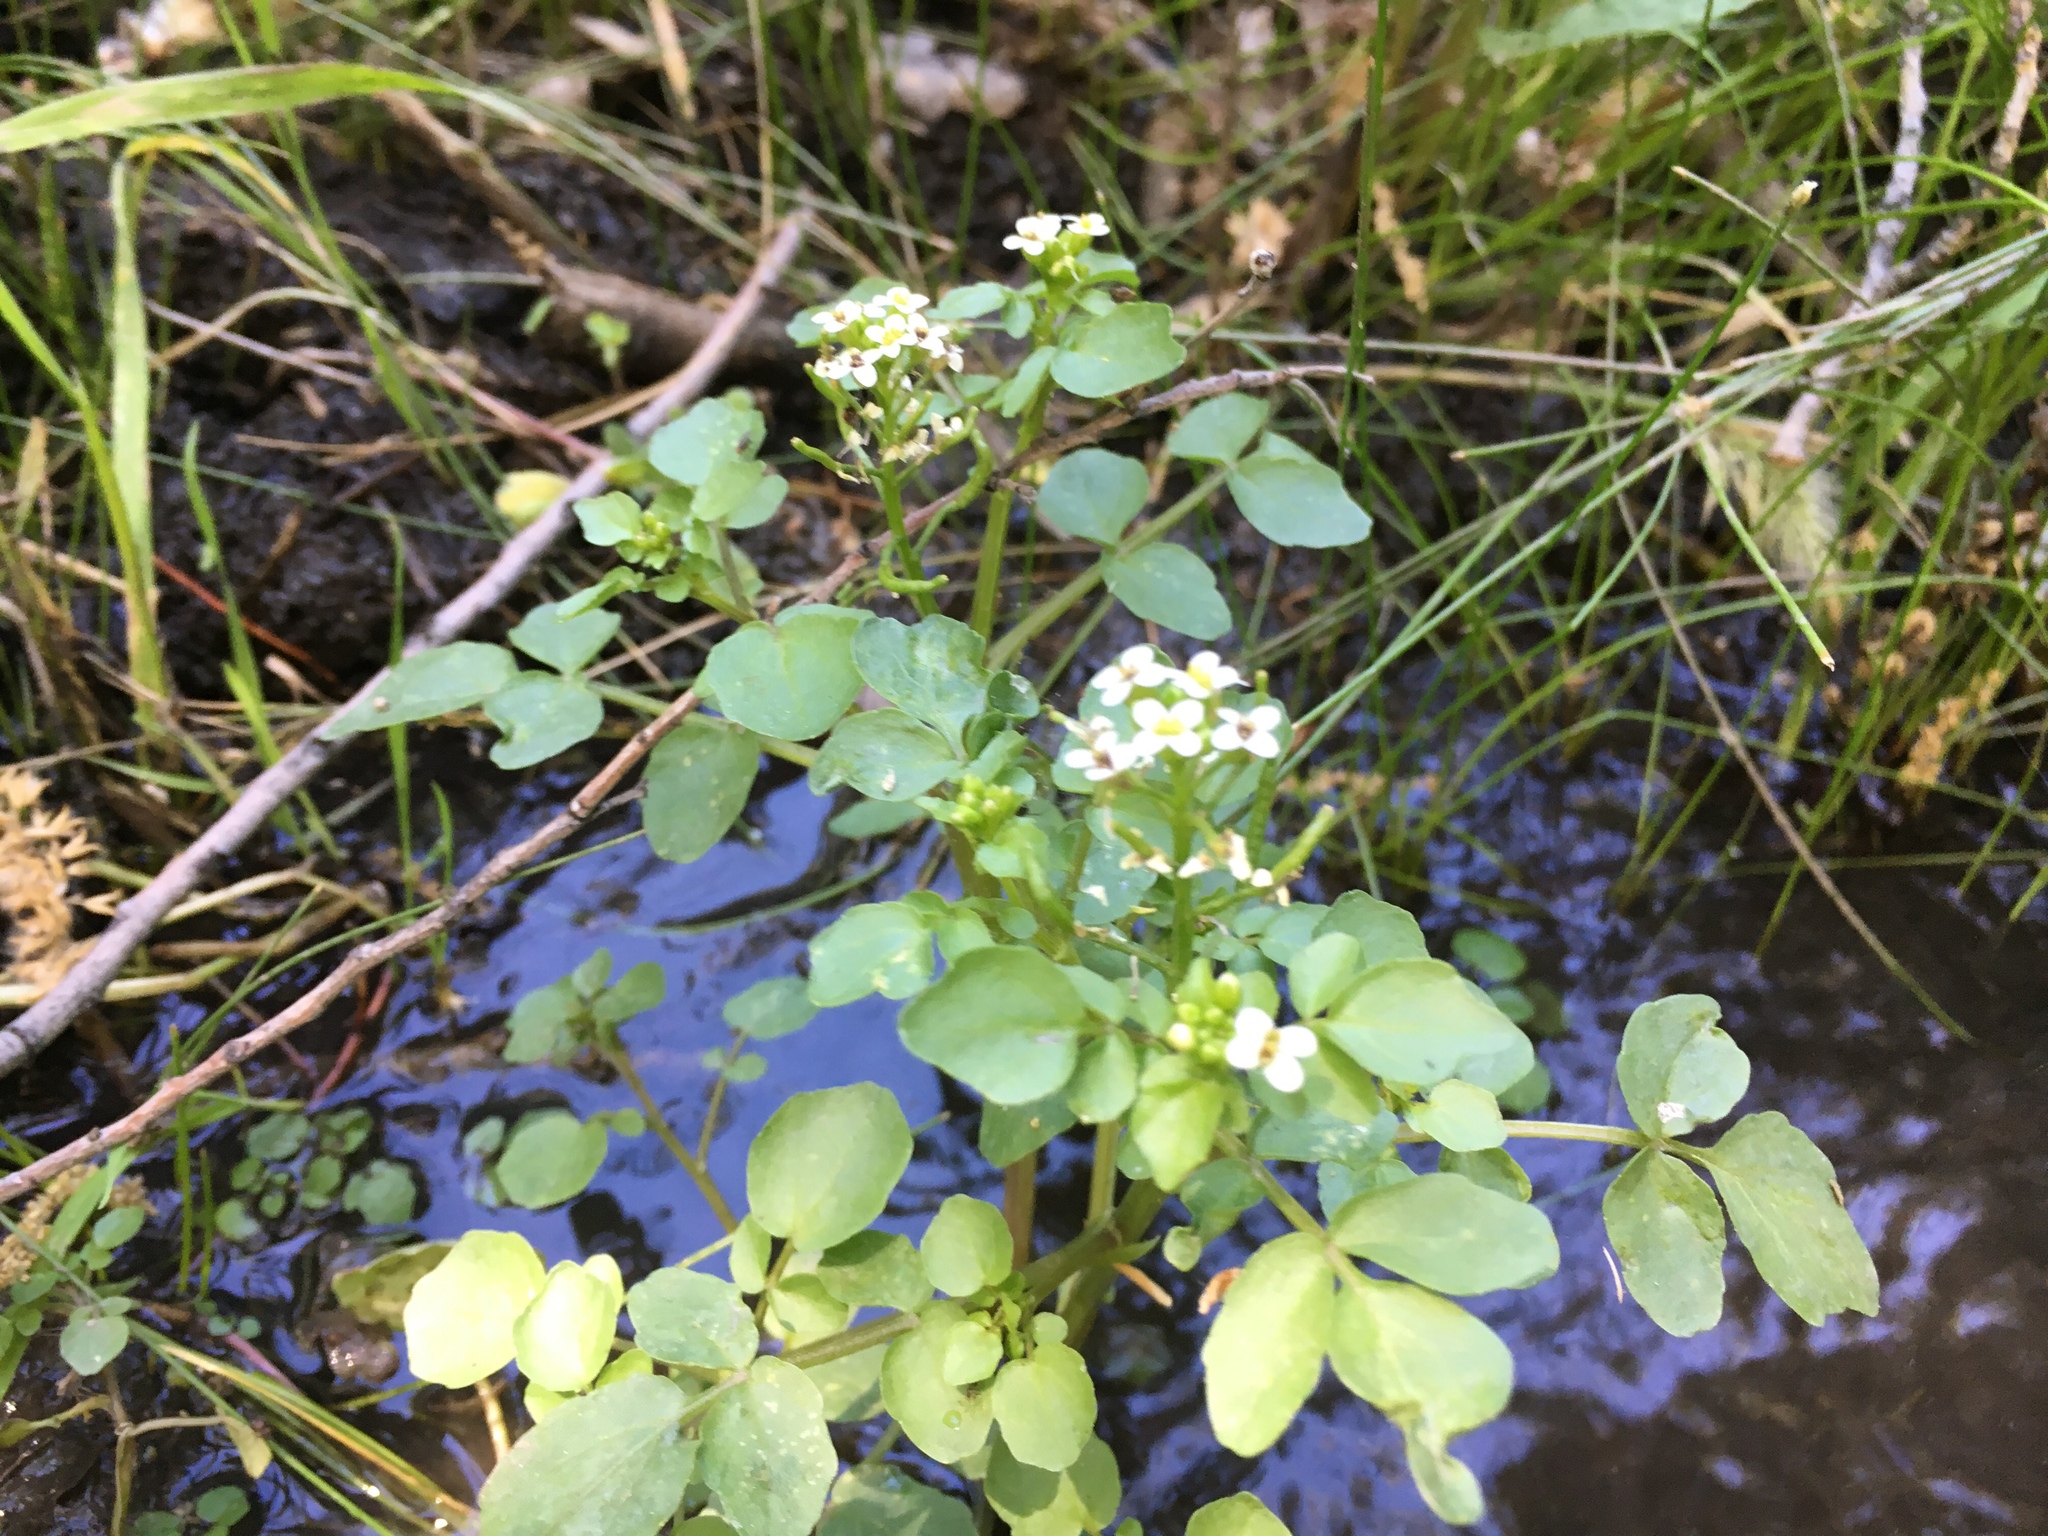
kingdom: Plantae
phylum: Tracheophyta
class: Magnoliopsida
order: Brassicales
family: Brassicaceae
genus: Nasturtium
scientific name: Nasturtium officinale
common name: Watercress
